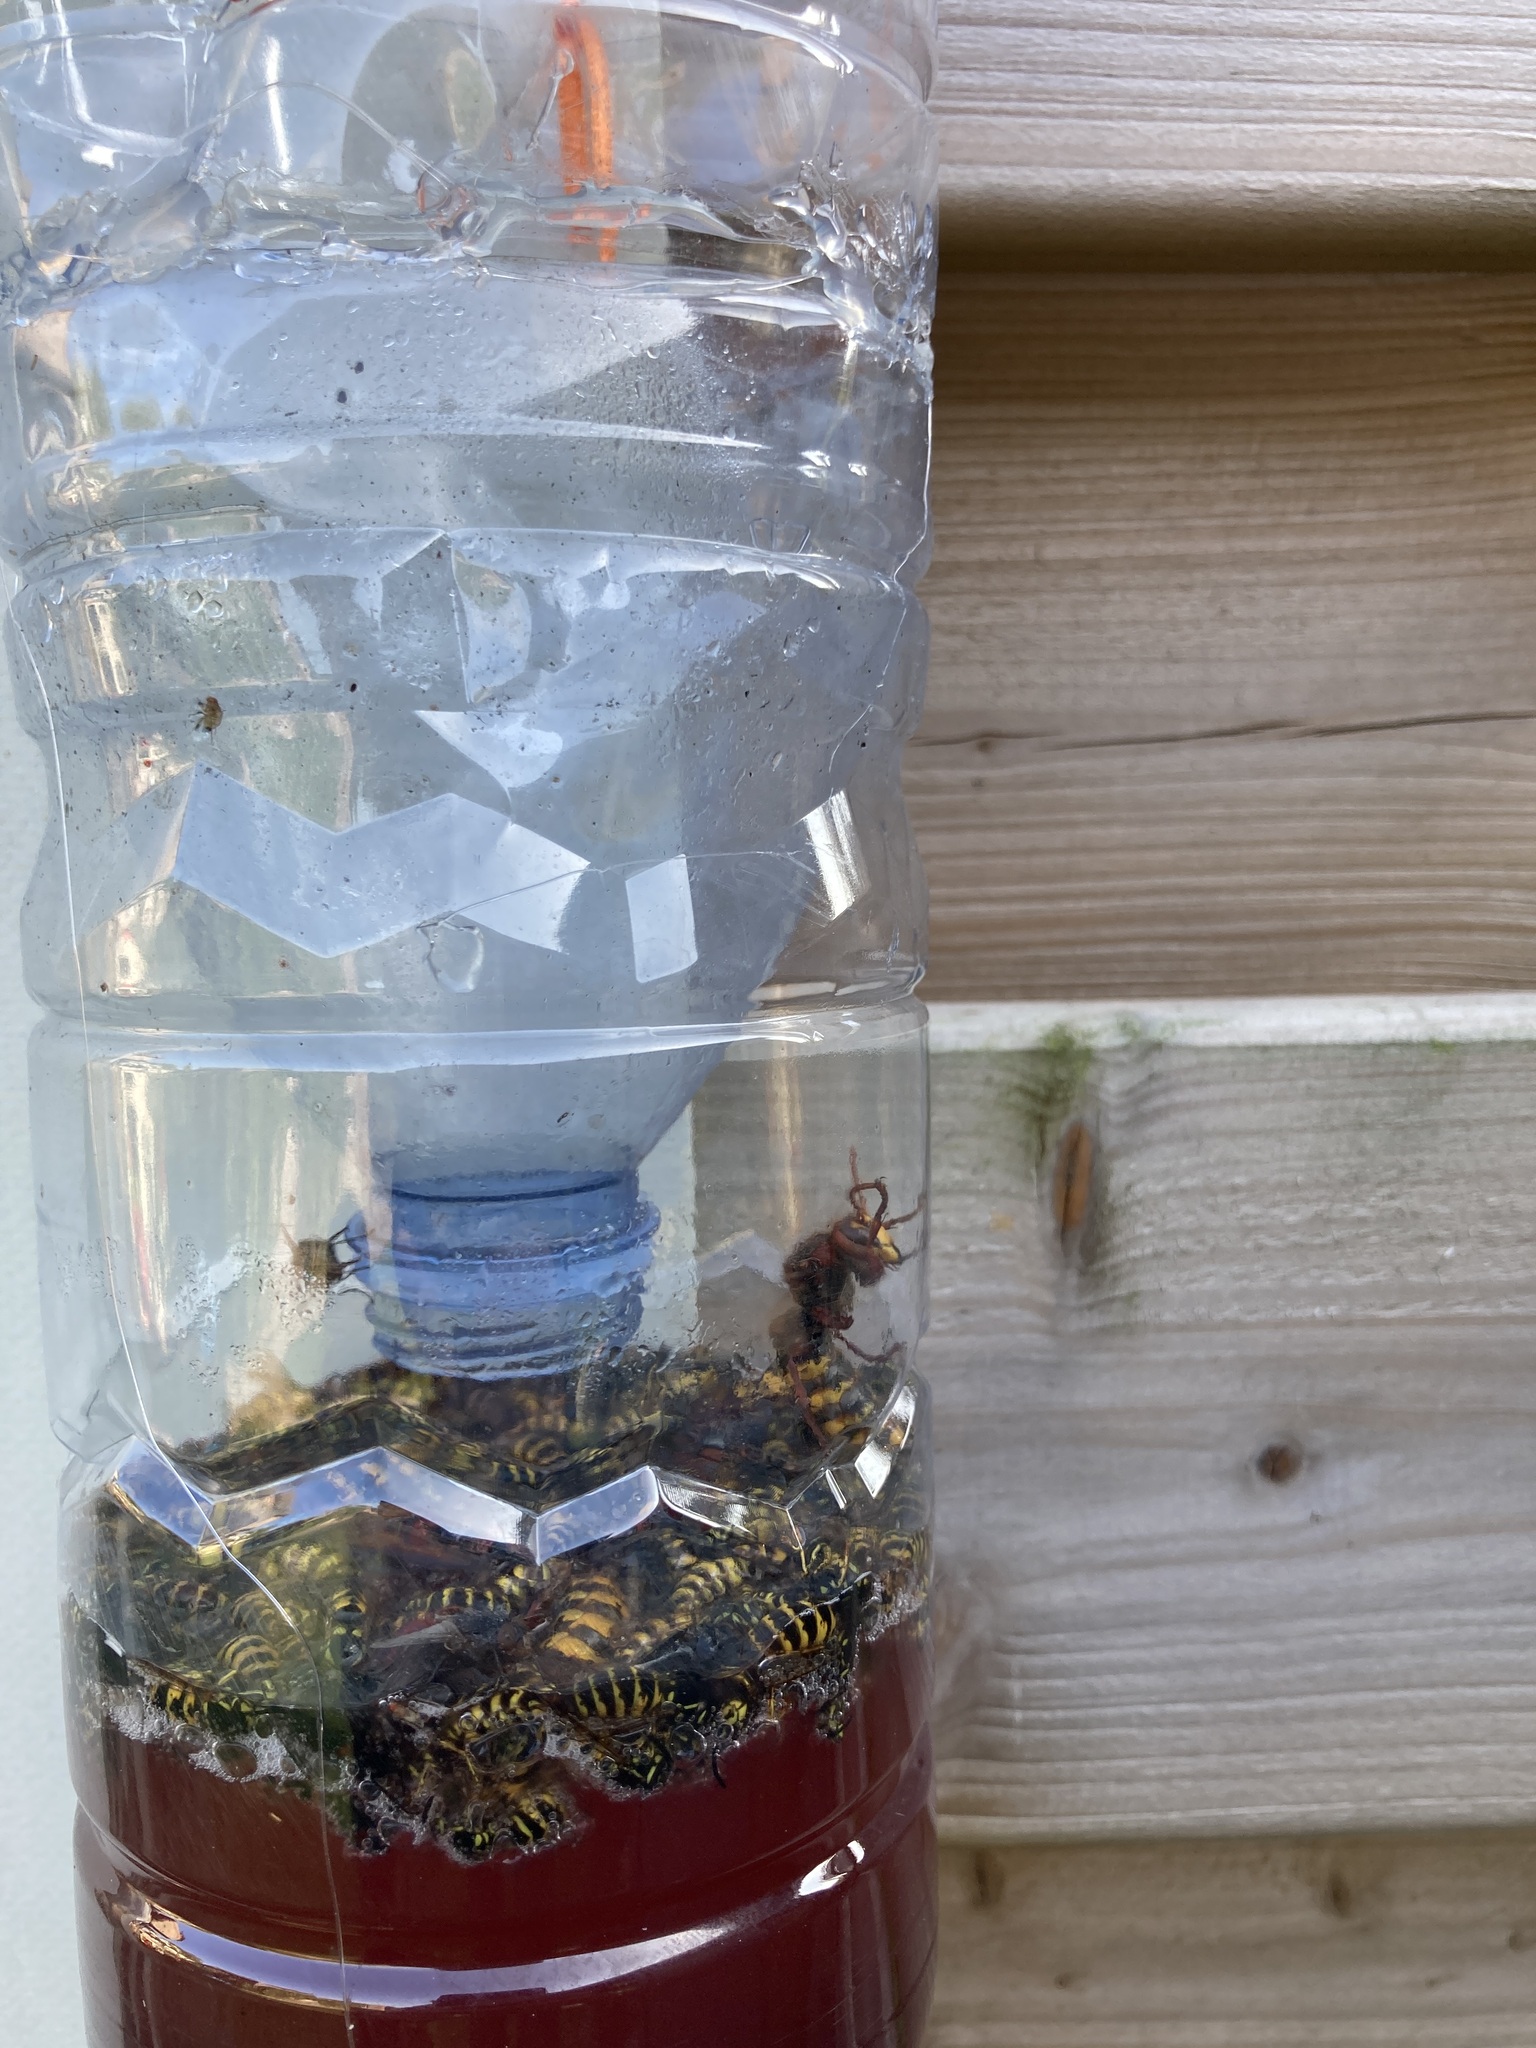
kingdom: Animalia
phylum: Arthropoda
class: Insecta
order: Hymenoptera
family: Vespidae
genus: Vespa
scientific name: Vespa crabro
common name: Hornet
